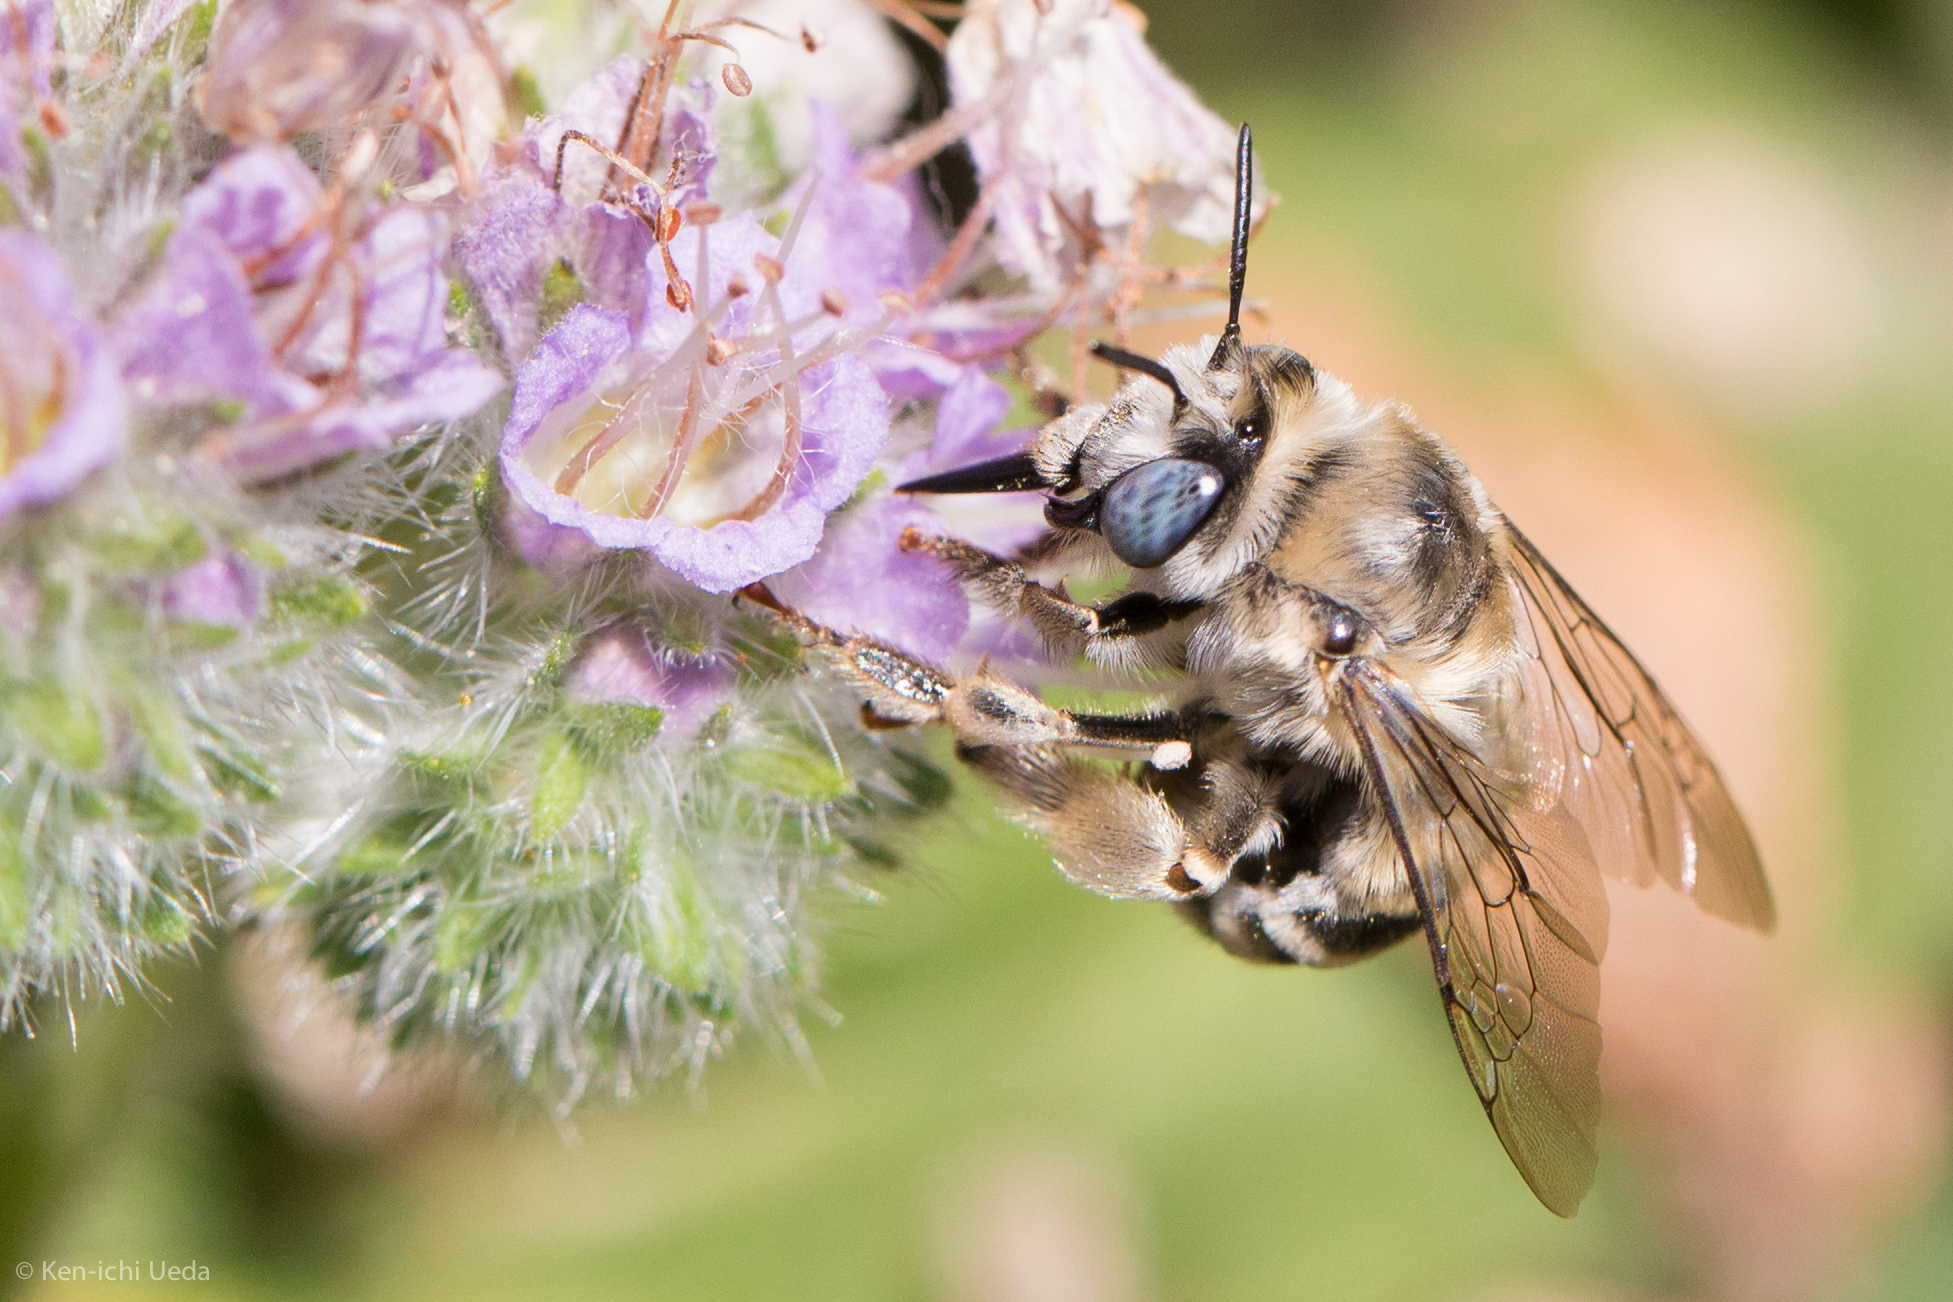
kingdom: Animalia
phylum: Arthropoda
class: Insecta
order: Hymenoptera
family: Apidae
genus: Anthophora
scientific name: Anthophora urbana
